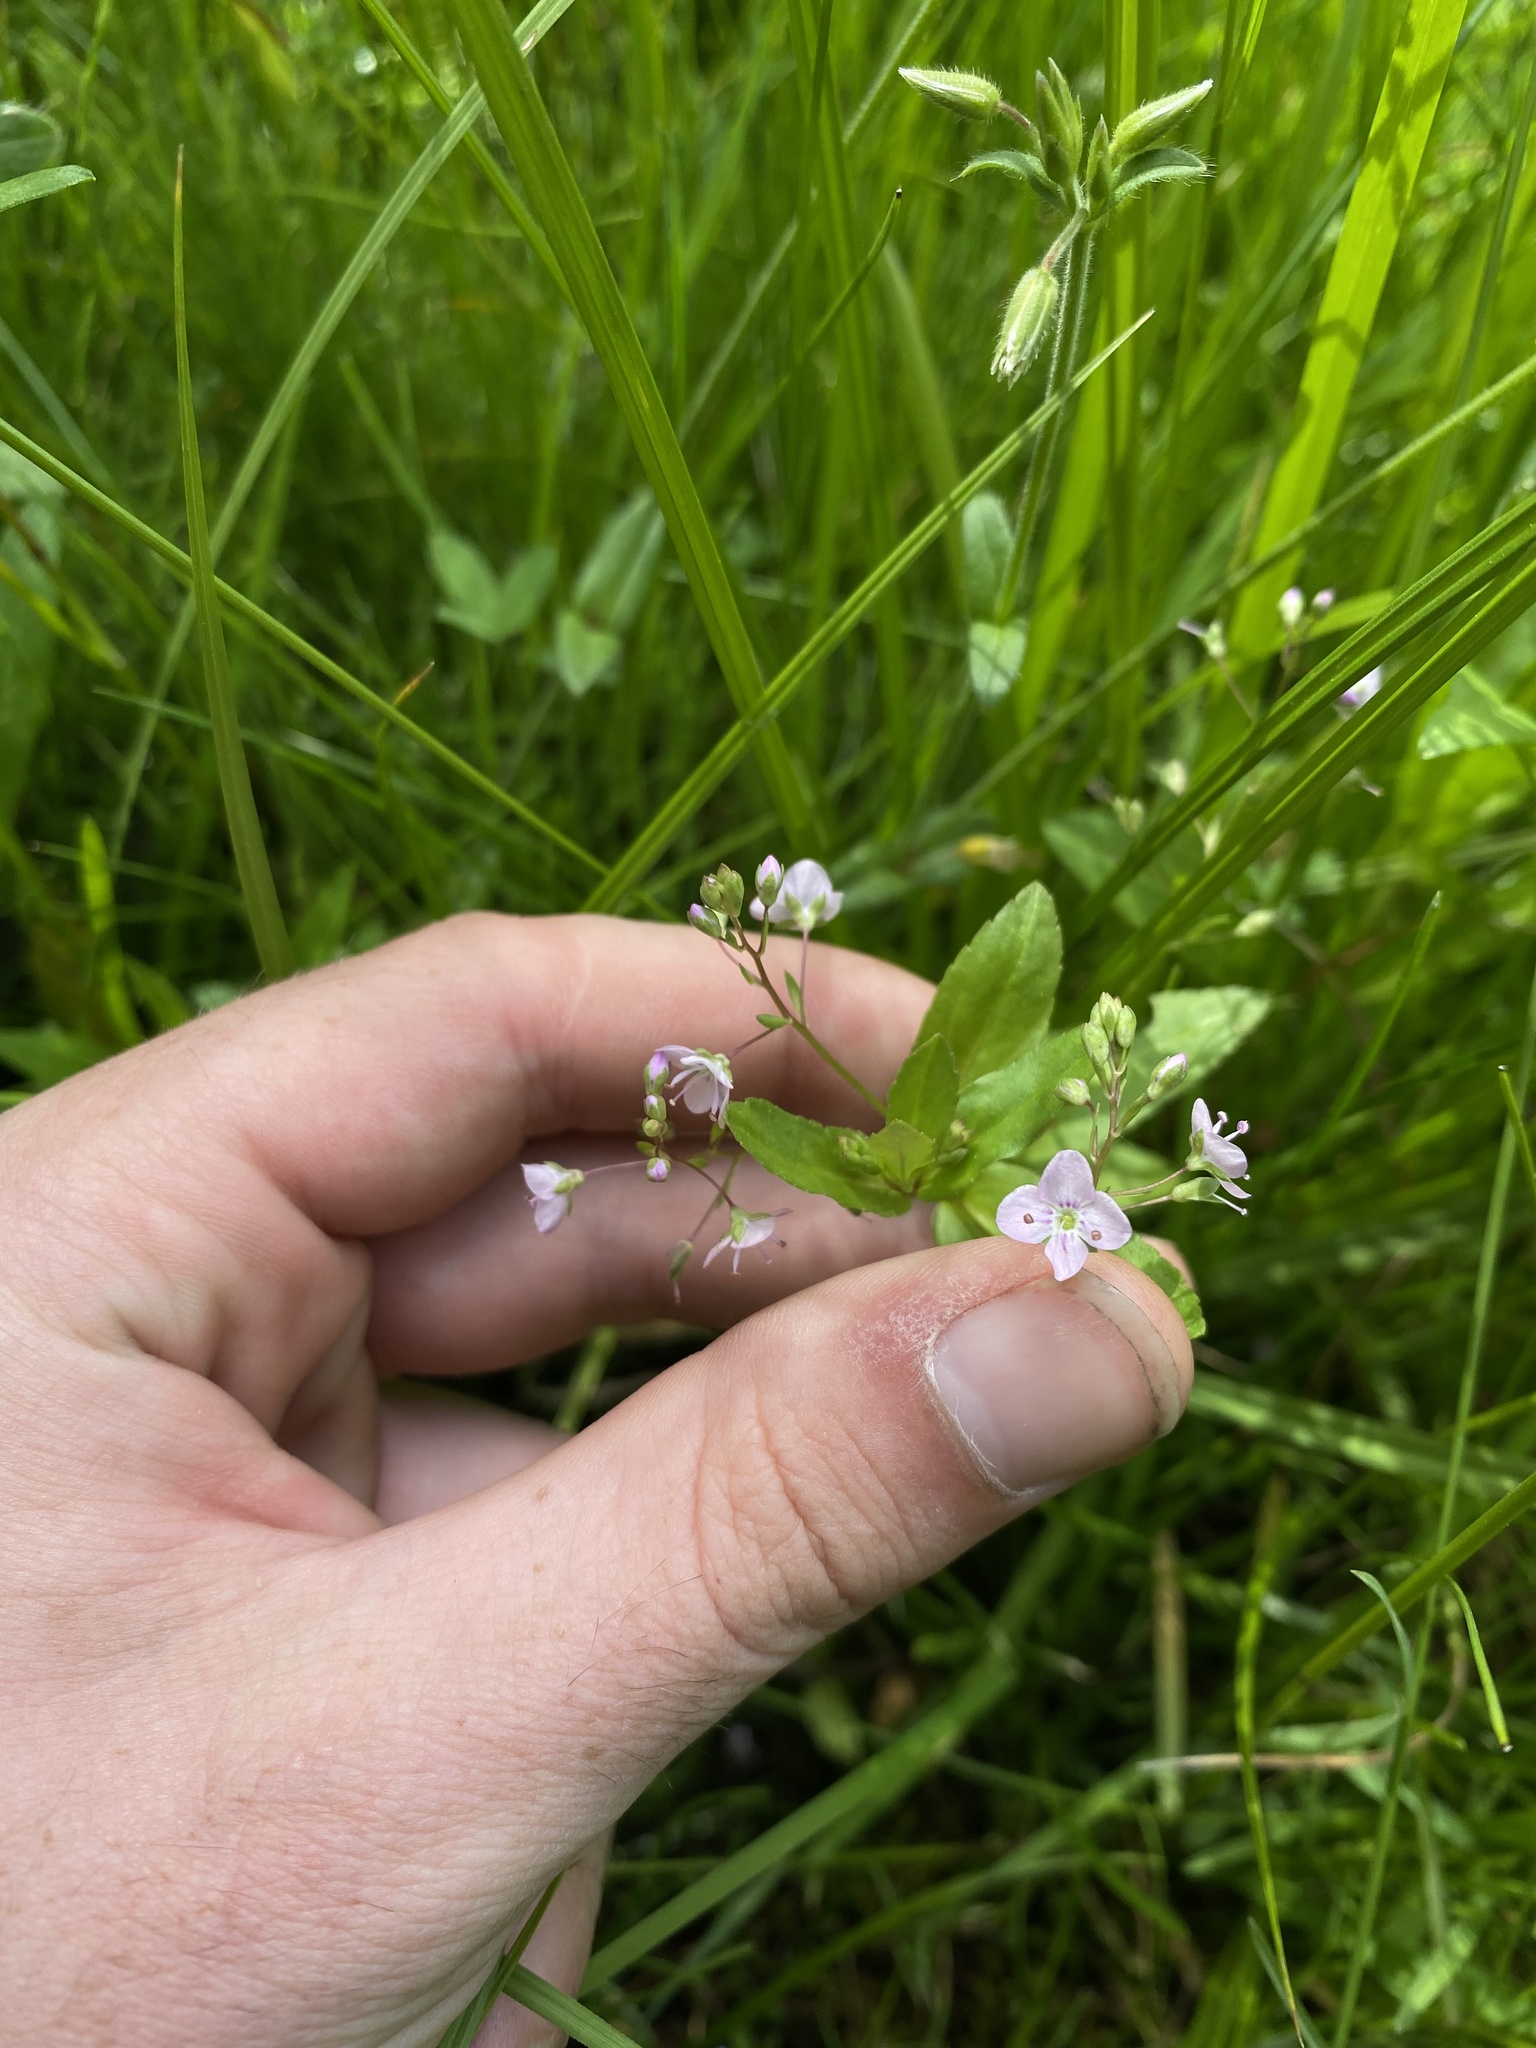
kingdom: Plantae
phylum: Tracheophyta
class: Magnoliopsida
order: Lamiales
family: Plantaginaceae
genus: Veronica
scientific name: Veronica americana
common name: American brooklime
